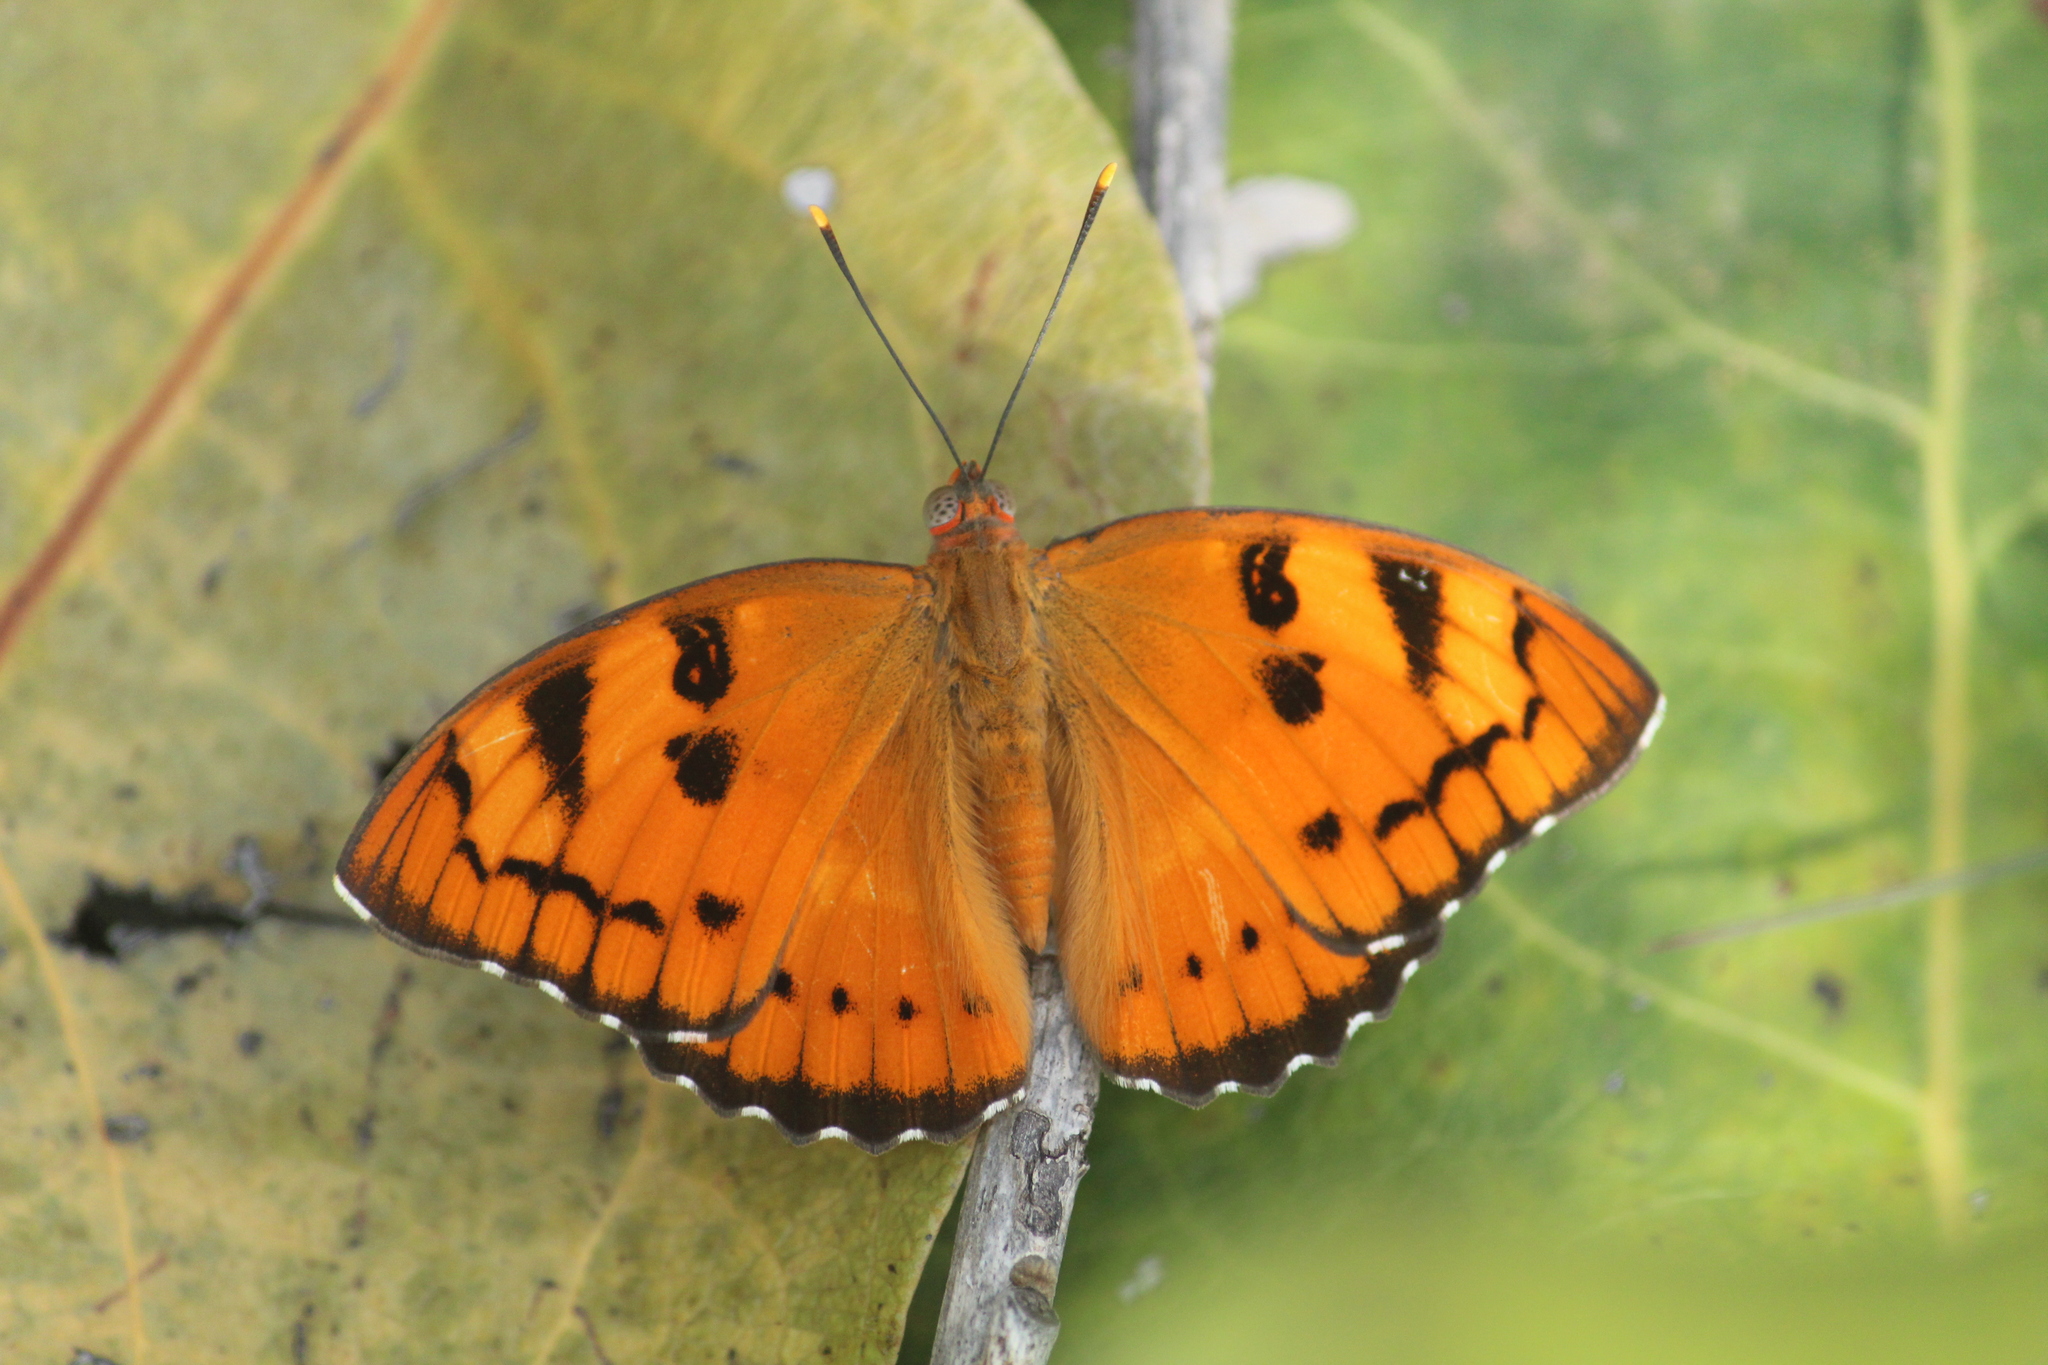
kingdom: Animalia
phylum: Arthropoda
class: Insecta
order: Lepidoptera
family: Nymphalidae
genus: Euthalia
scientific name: Euthalia nais
